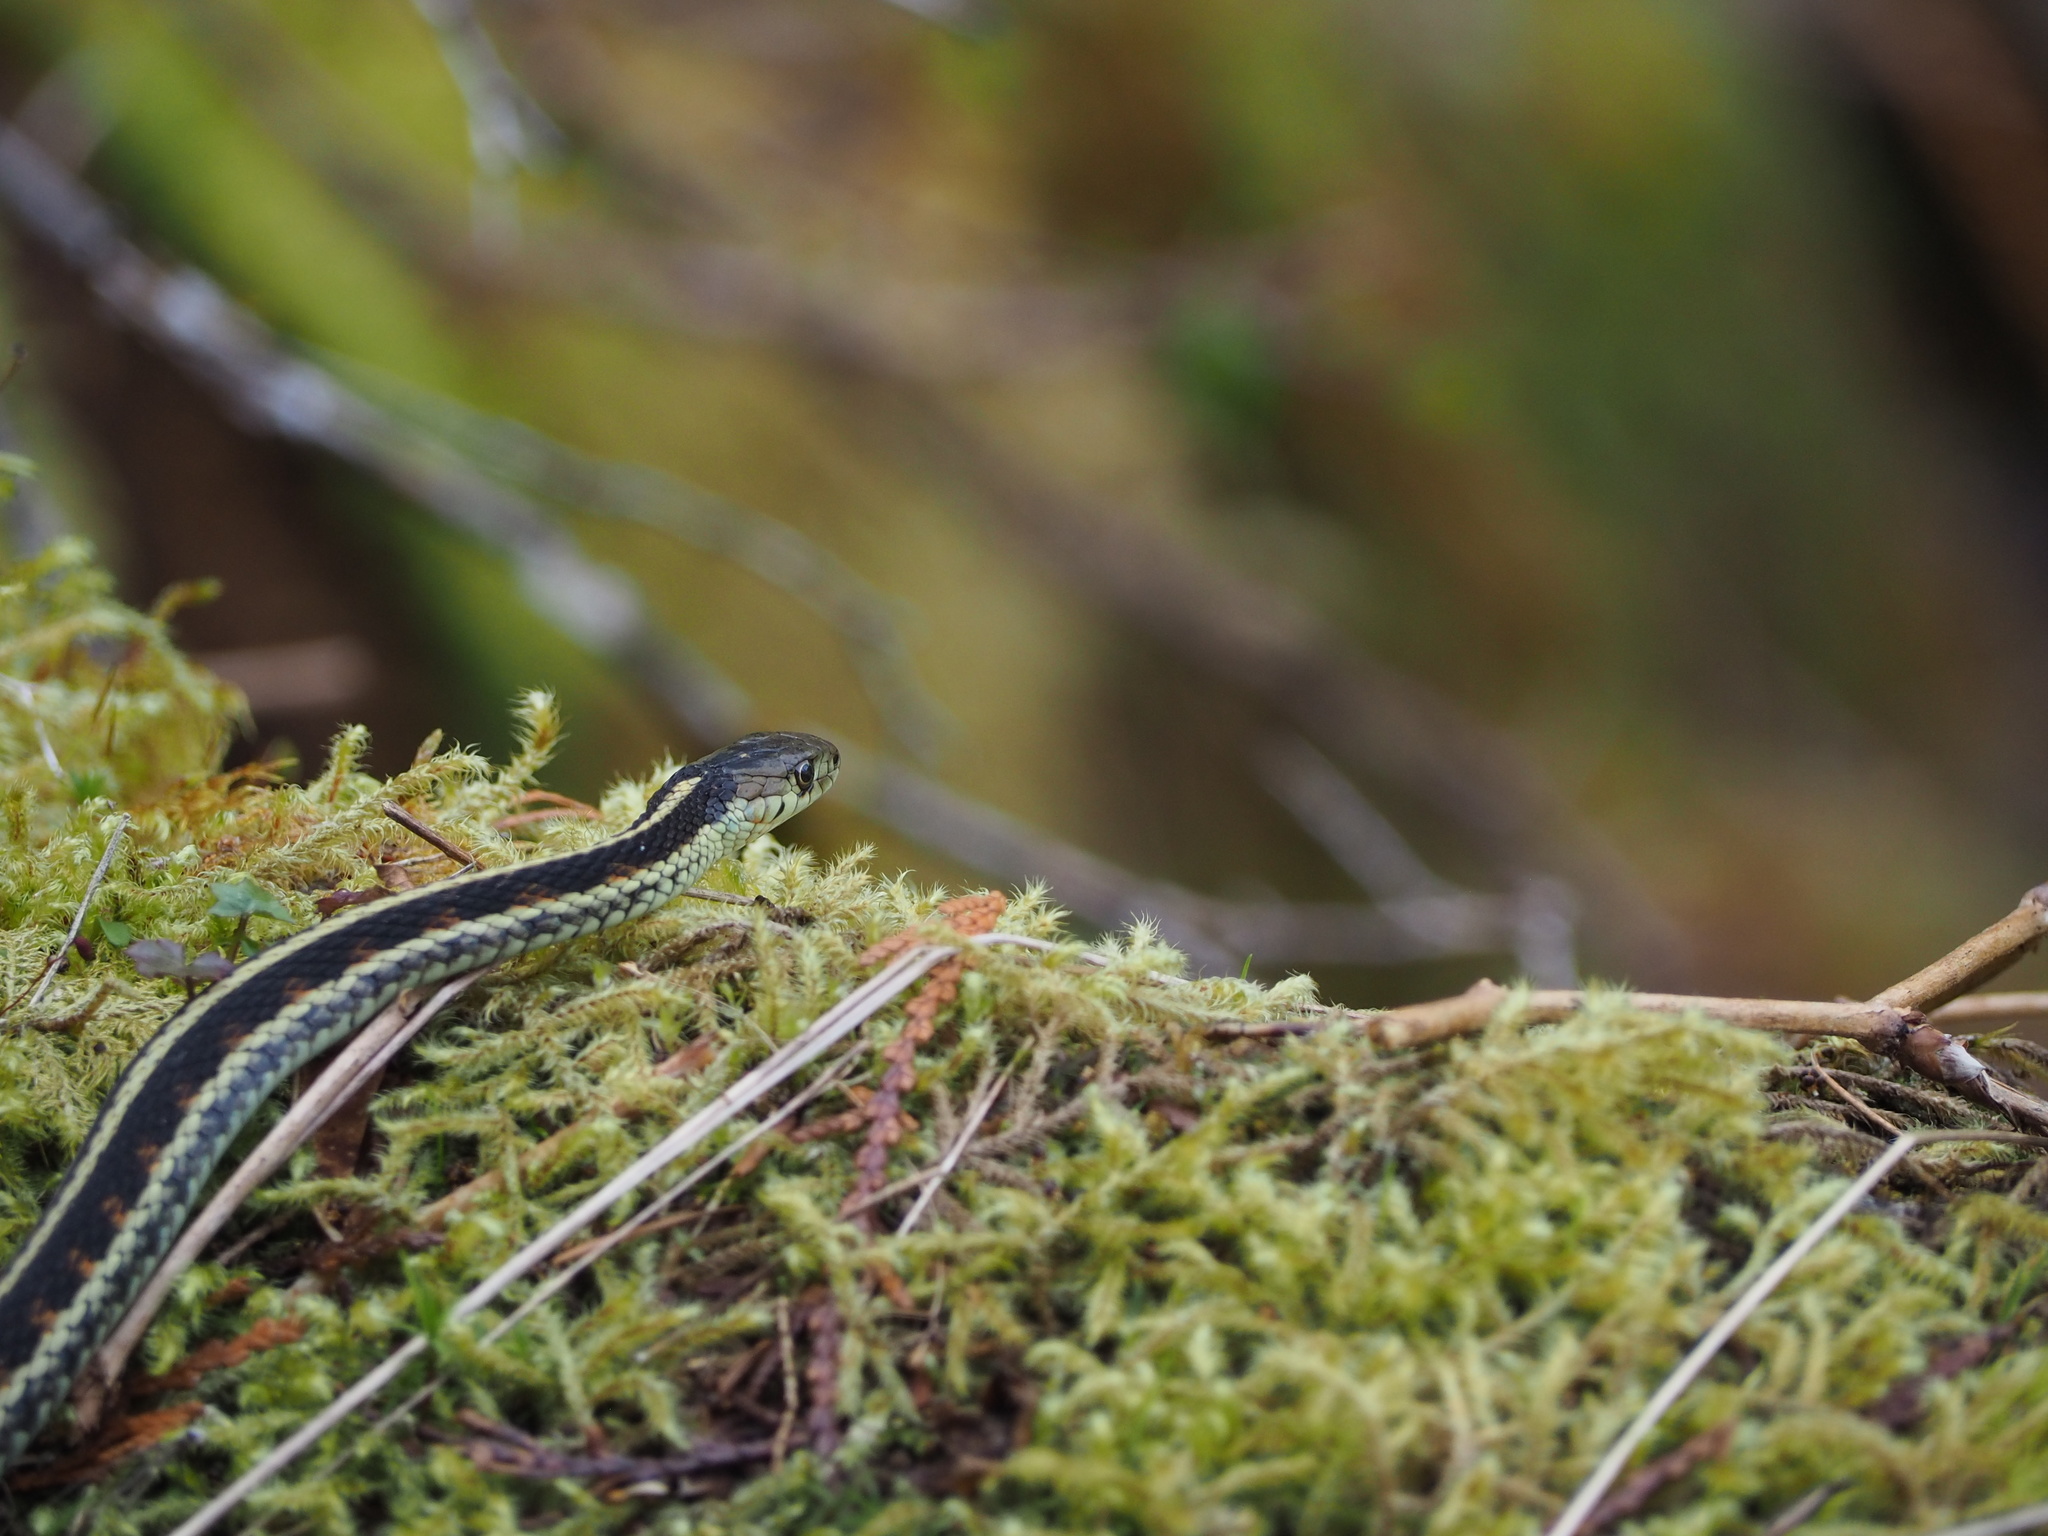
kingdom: Animalia
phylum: Chordata
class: Squamata
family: Colubridae
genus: Thamnophis
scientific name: Thamnophis sirtalis
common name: Common garter snake
